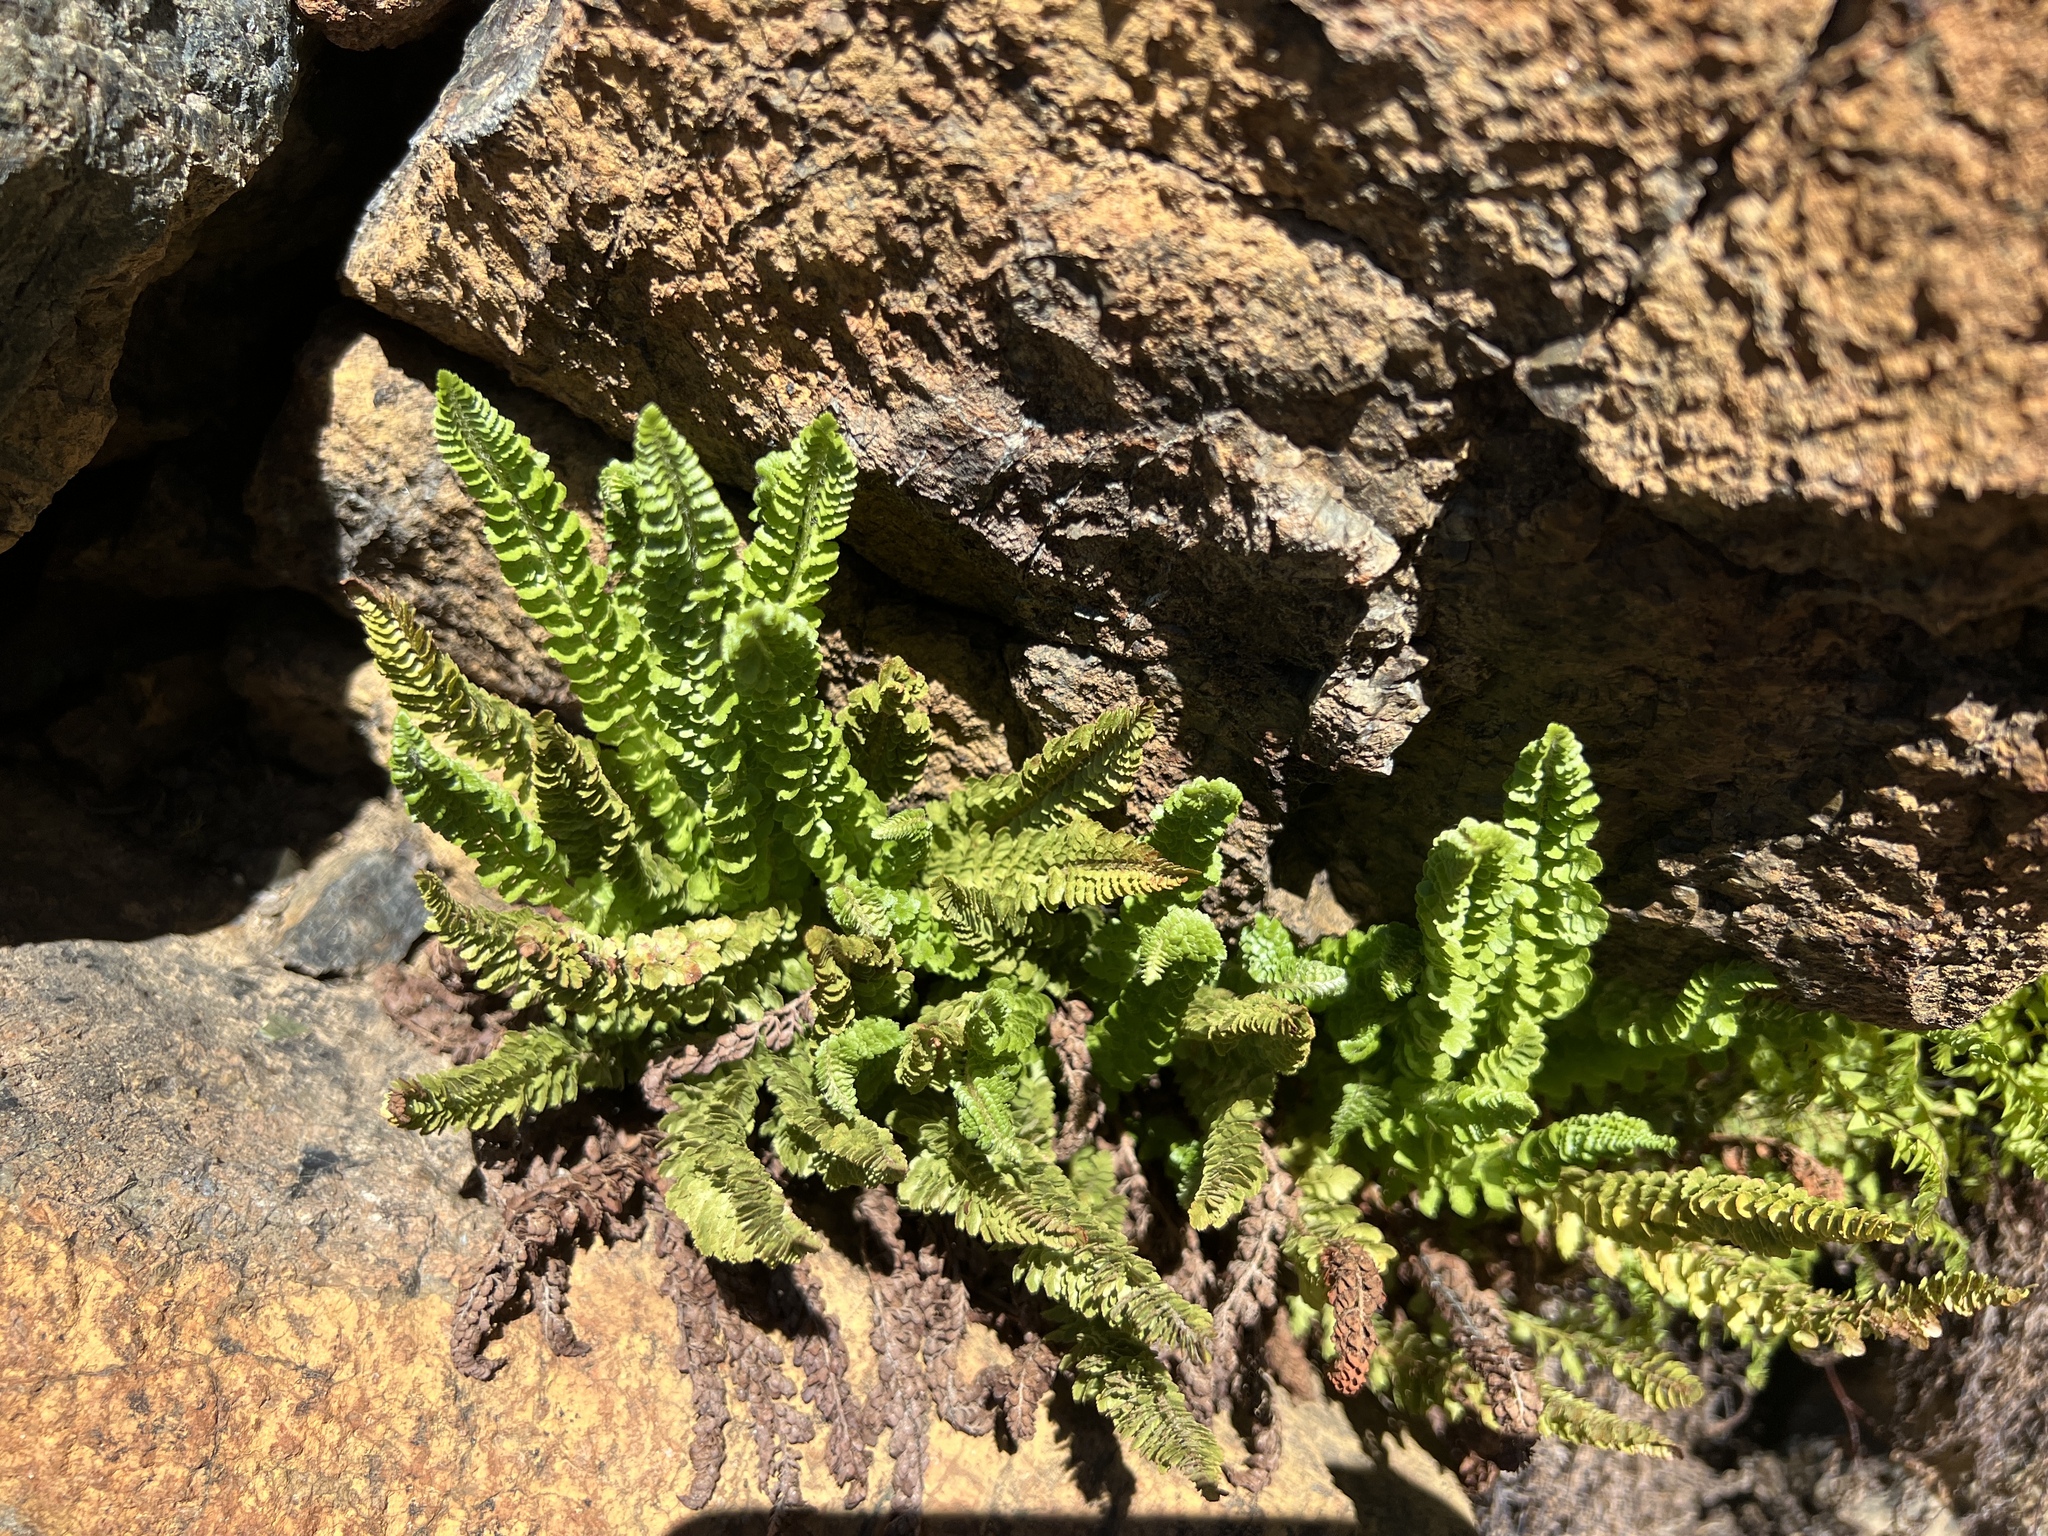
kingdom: Plantae
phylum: Tracheophyta
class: Polypodiopsida
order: Polypodiales
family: Dryopteridaceae
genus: Polystichum
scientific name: Polystichum lemmonii
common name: Lemmon's holly fern
